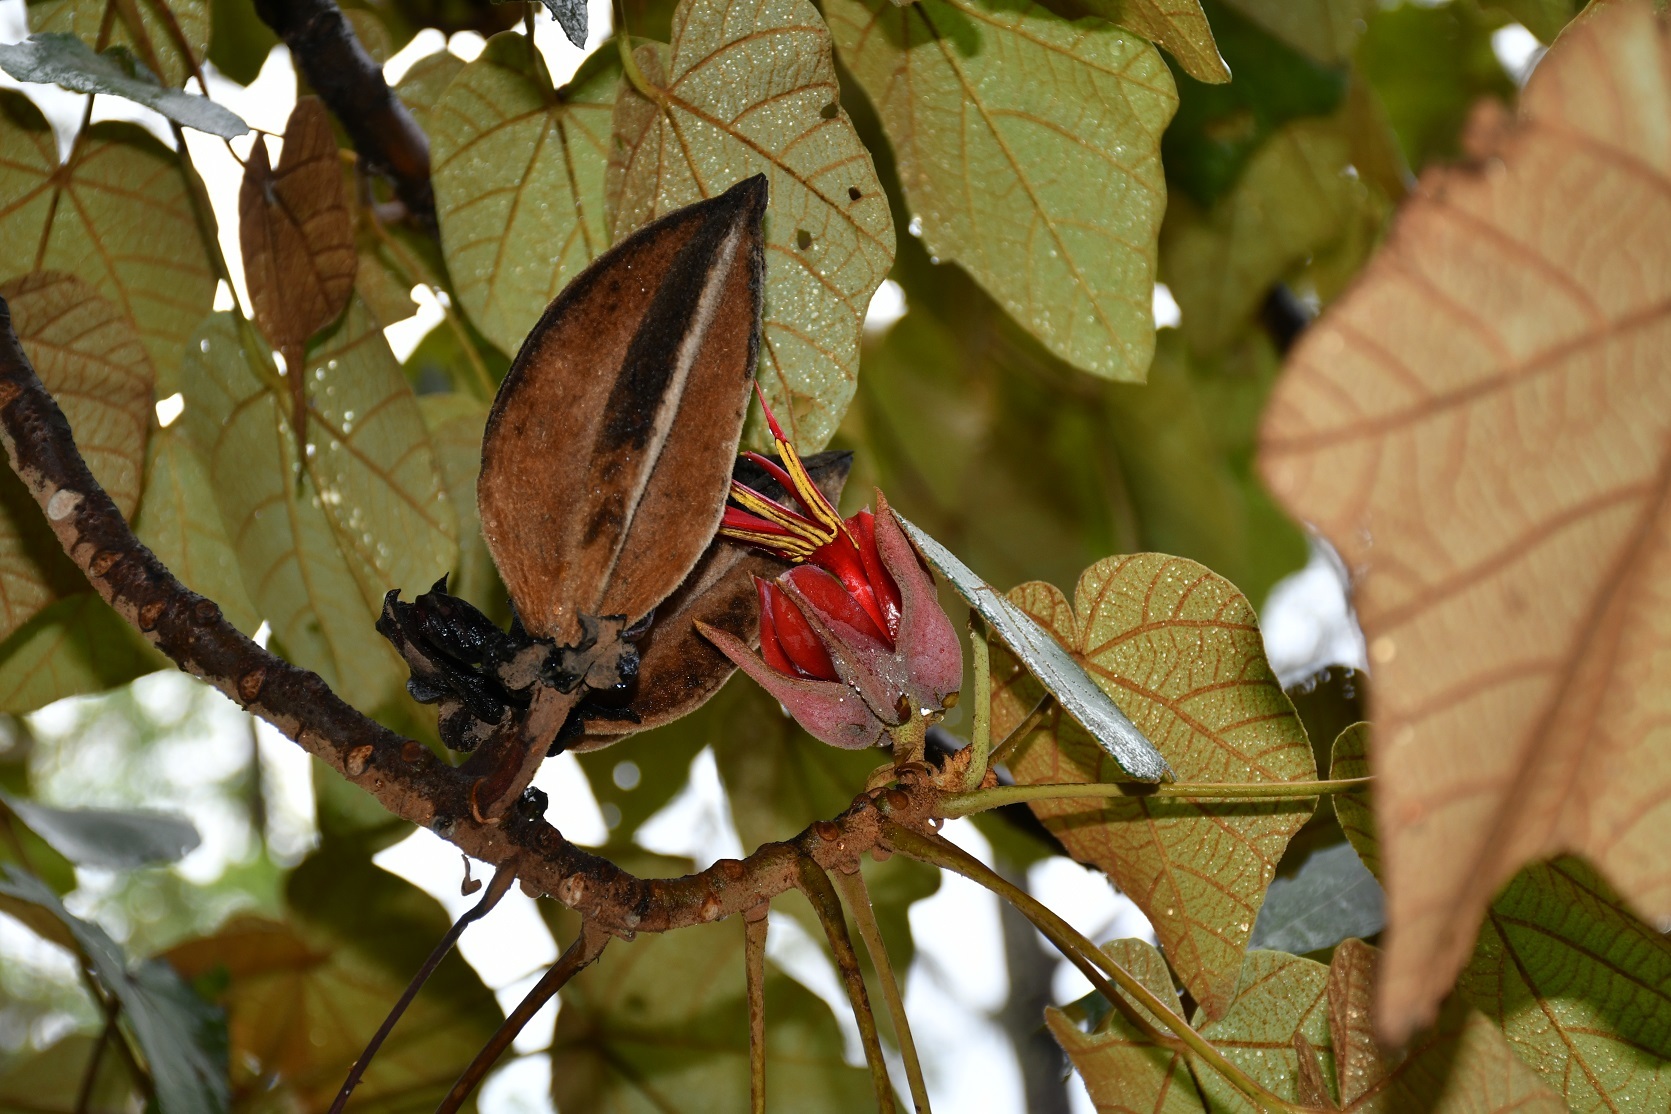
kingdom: Plantae
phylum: Tracheophyta
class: Magnoliopsida
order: Malvales
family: Malvaceae
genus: Chiranthodendron
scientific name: Chiranthodendron pentadactylon
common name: Mexican-hat-plant
